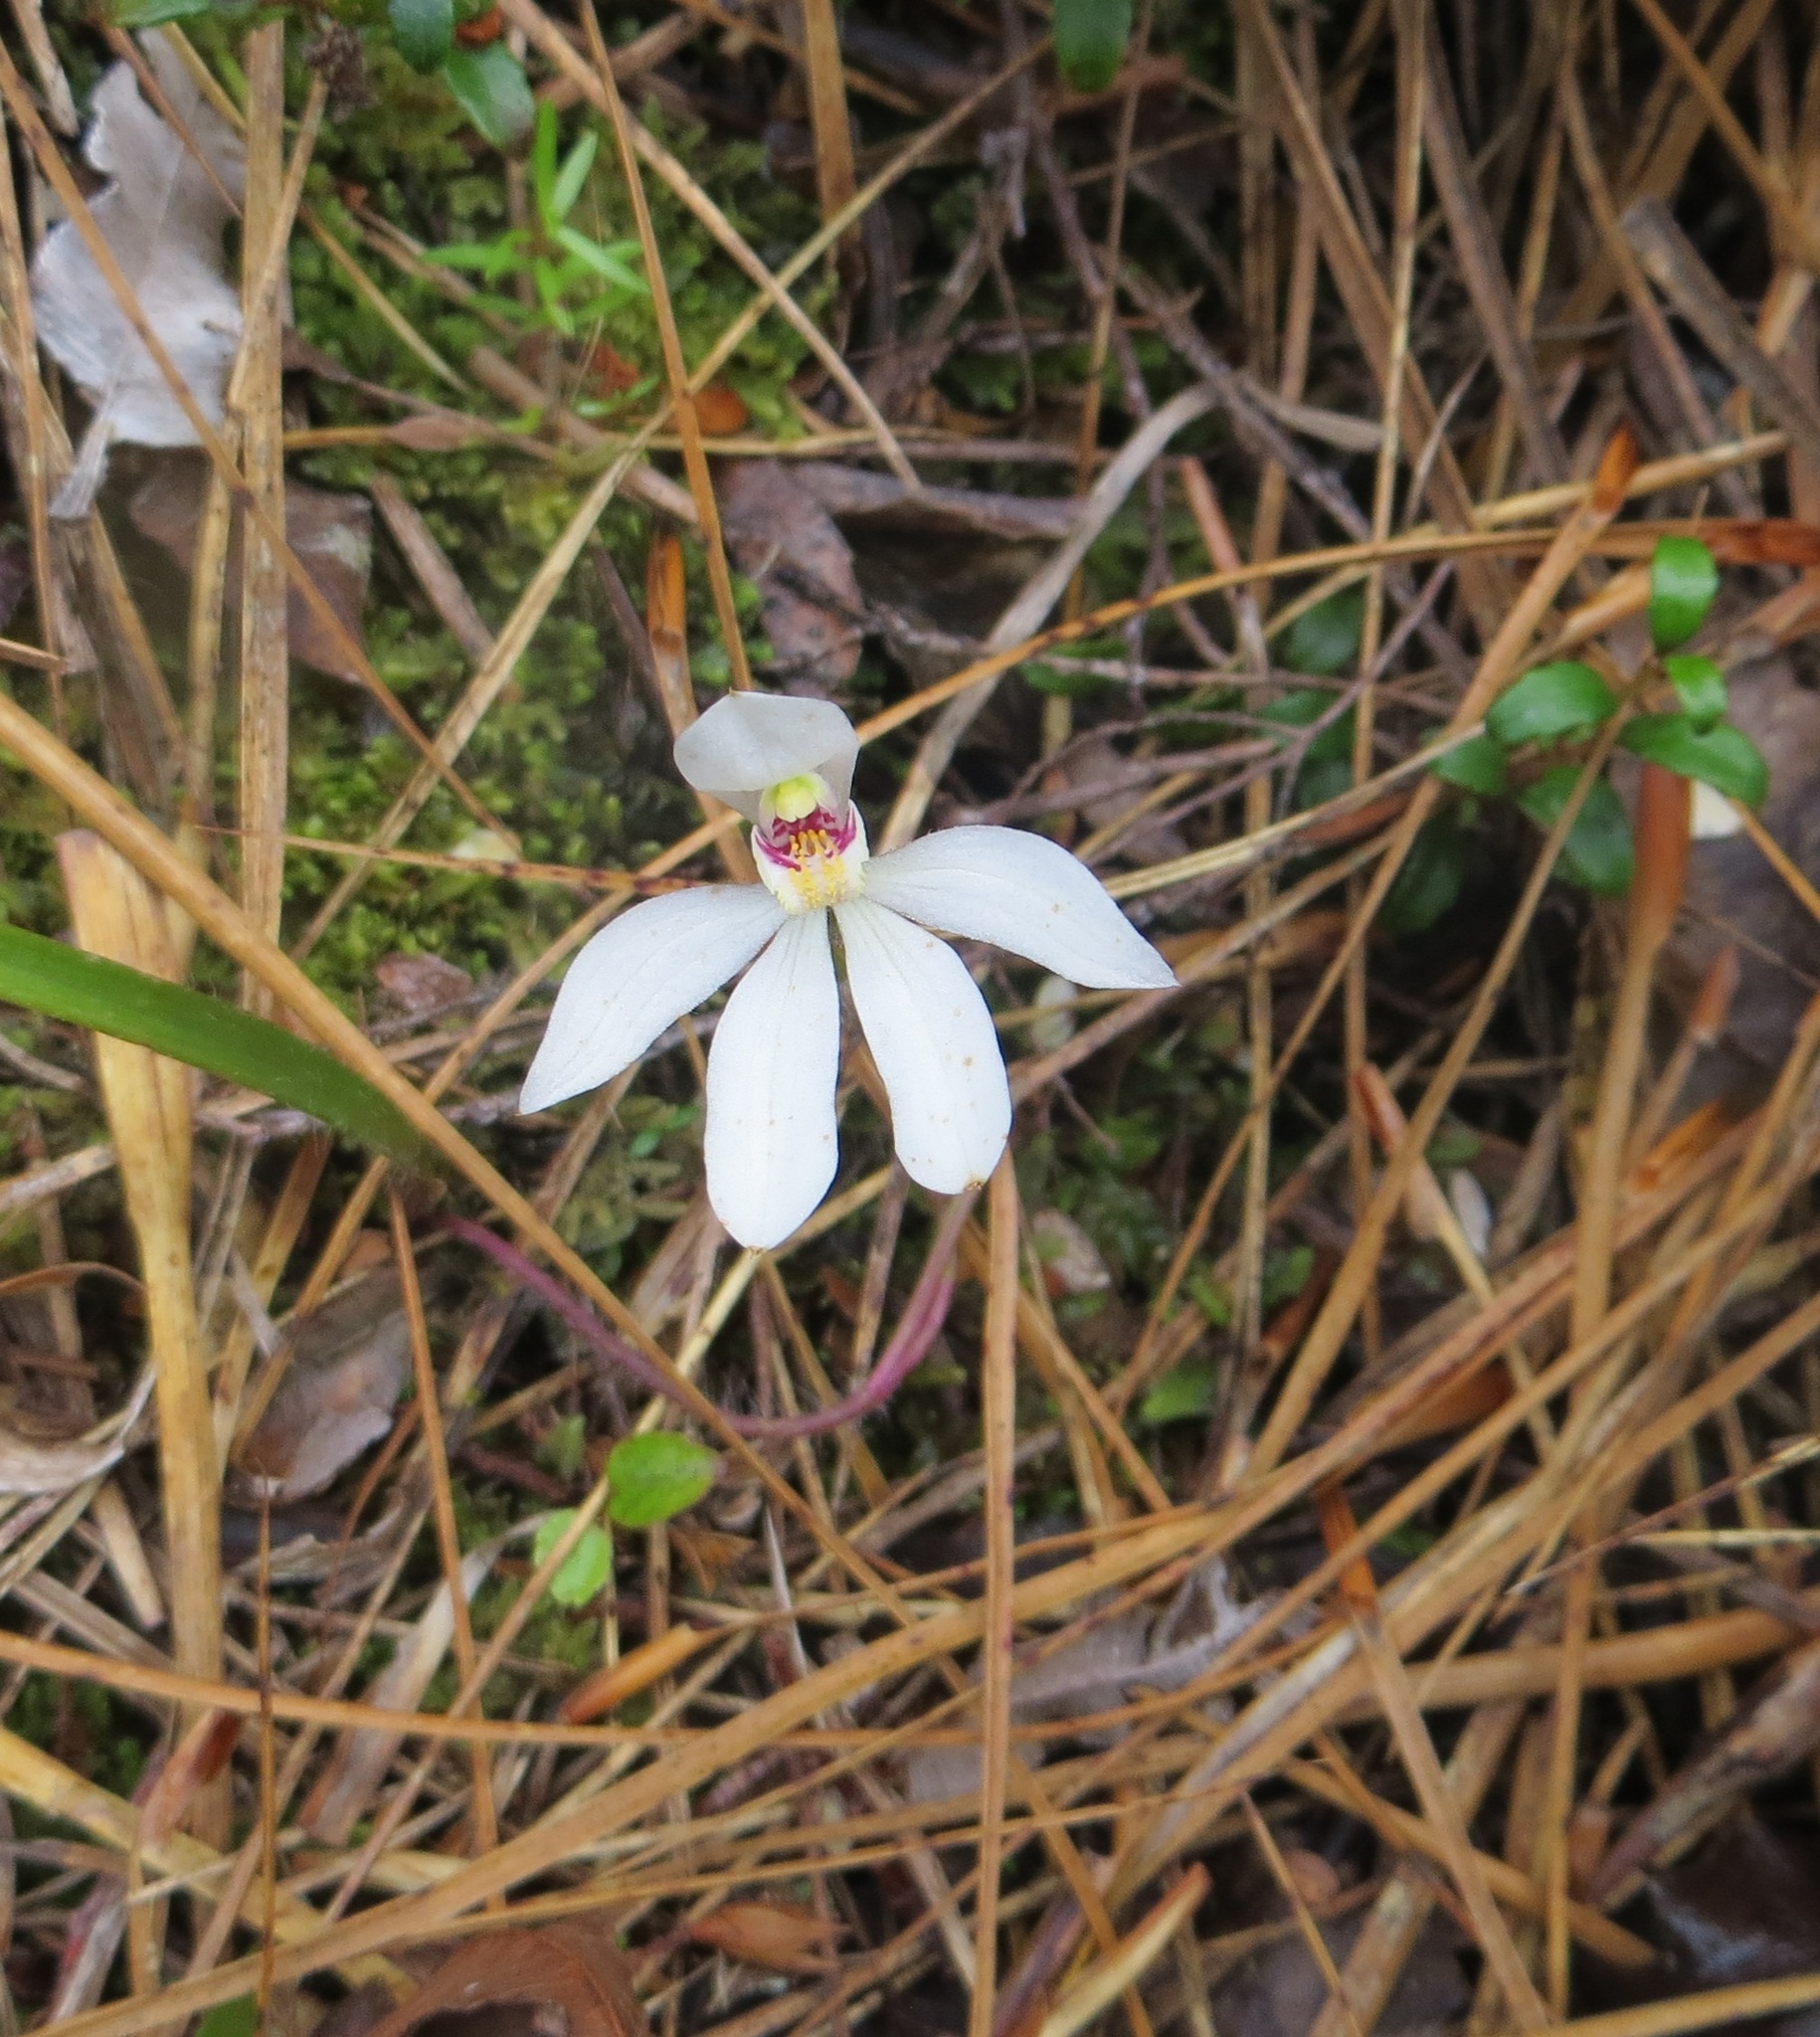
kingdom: Plantae
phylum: Tracheophyta
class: Liliopsida
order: Asparagales
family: Orchidaceae
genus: Caladenia
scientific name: Caladenia lyallii
